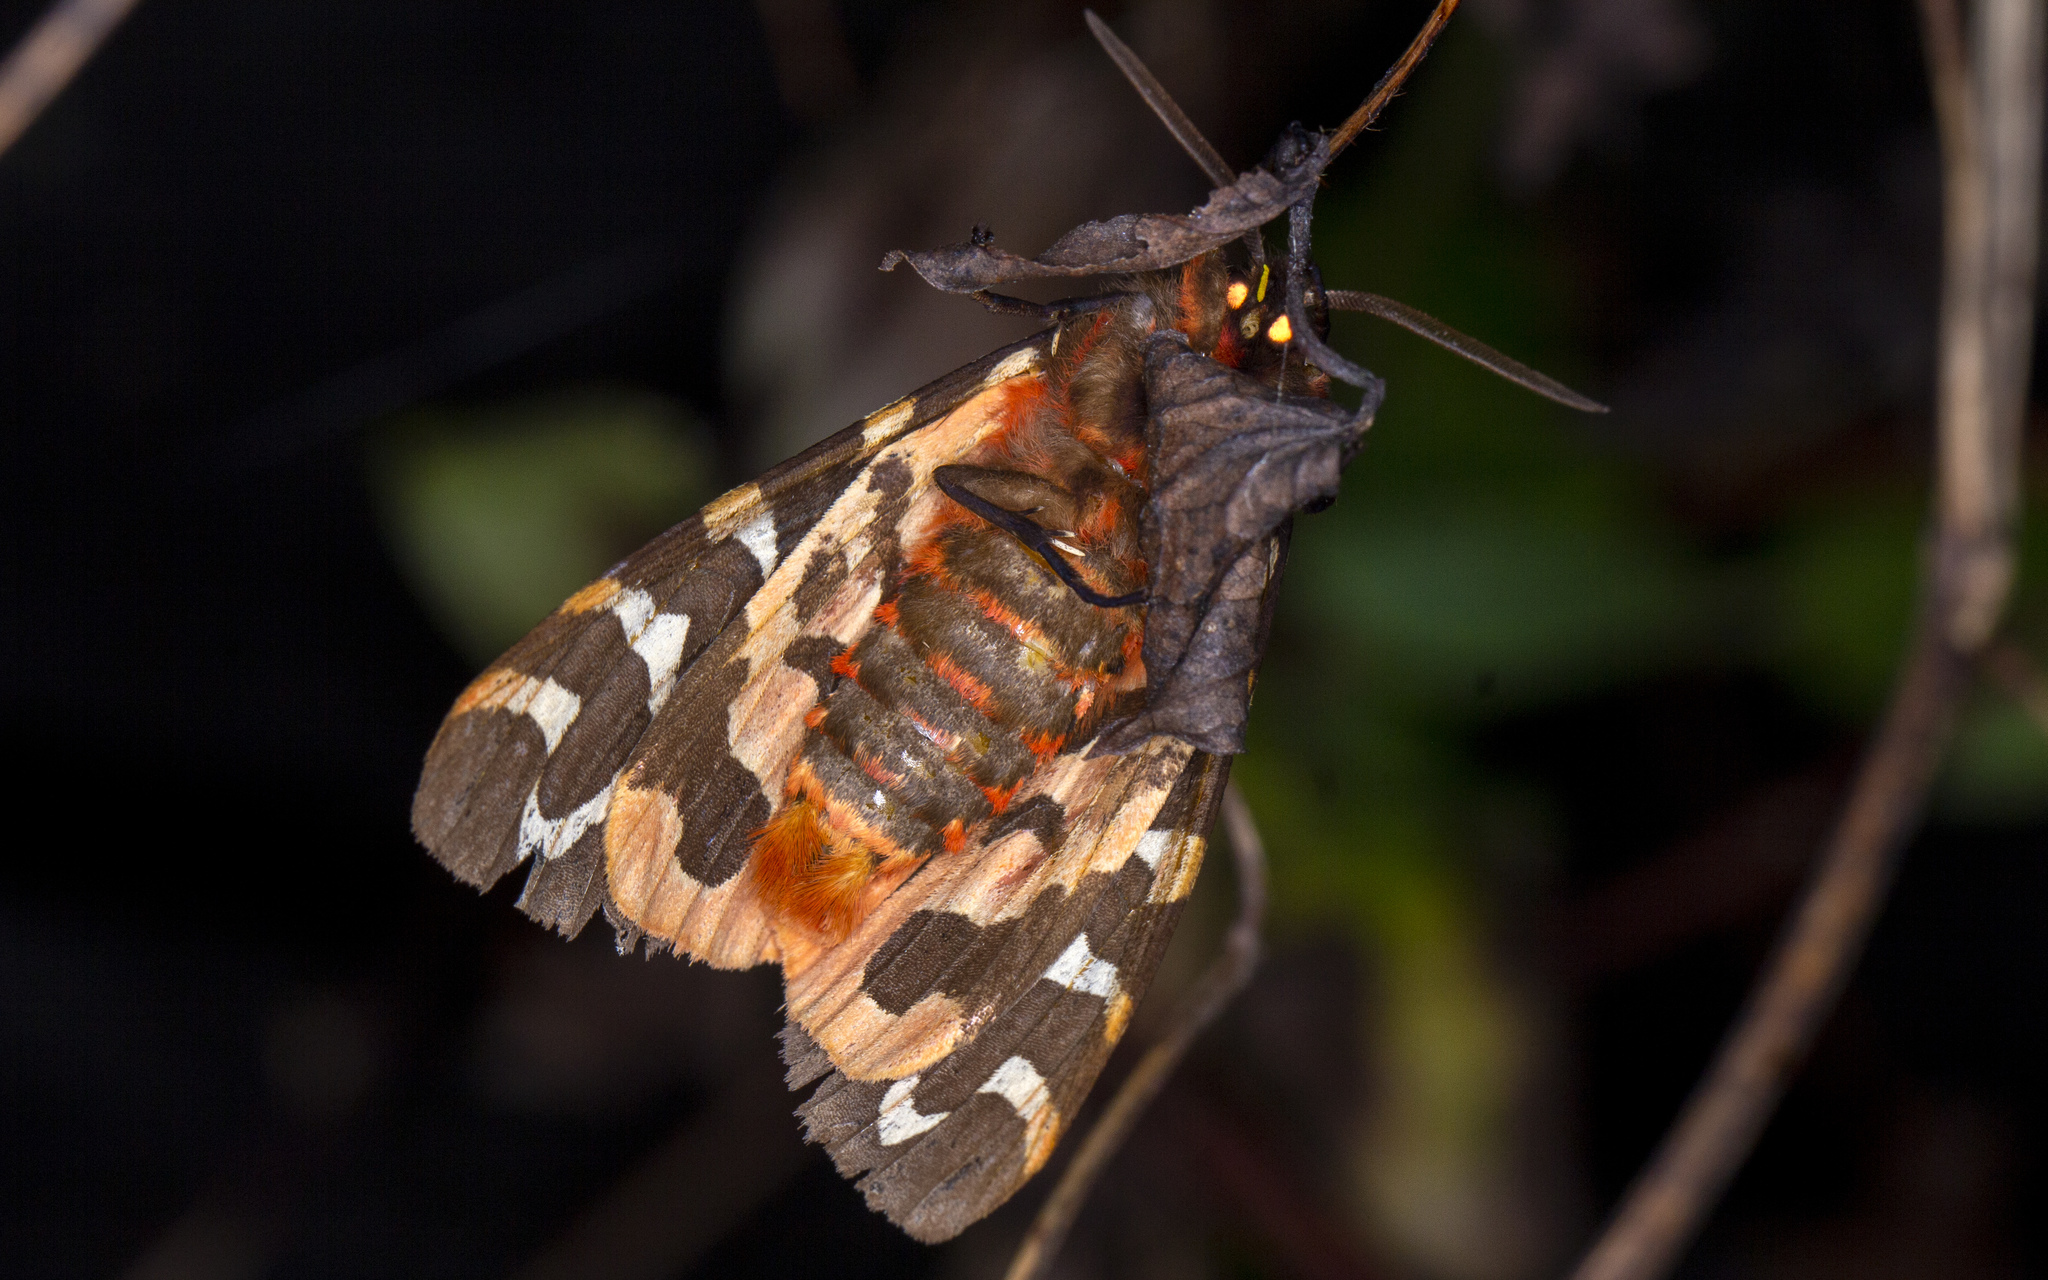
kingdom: Animalia
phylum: Arthropoda
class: Insecta
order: Lepidoptera
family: Erebidae
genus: Arctia
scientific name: Arctia caja
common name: Garden tiger
